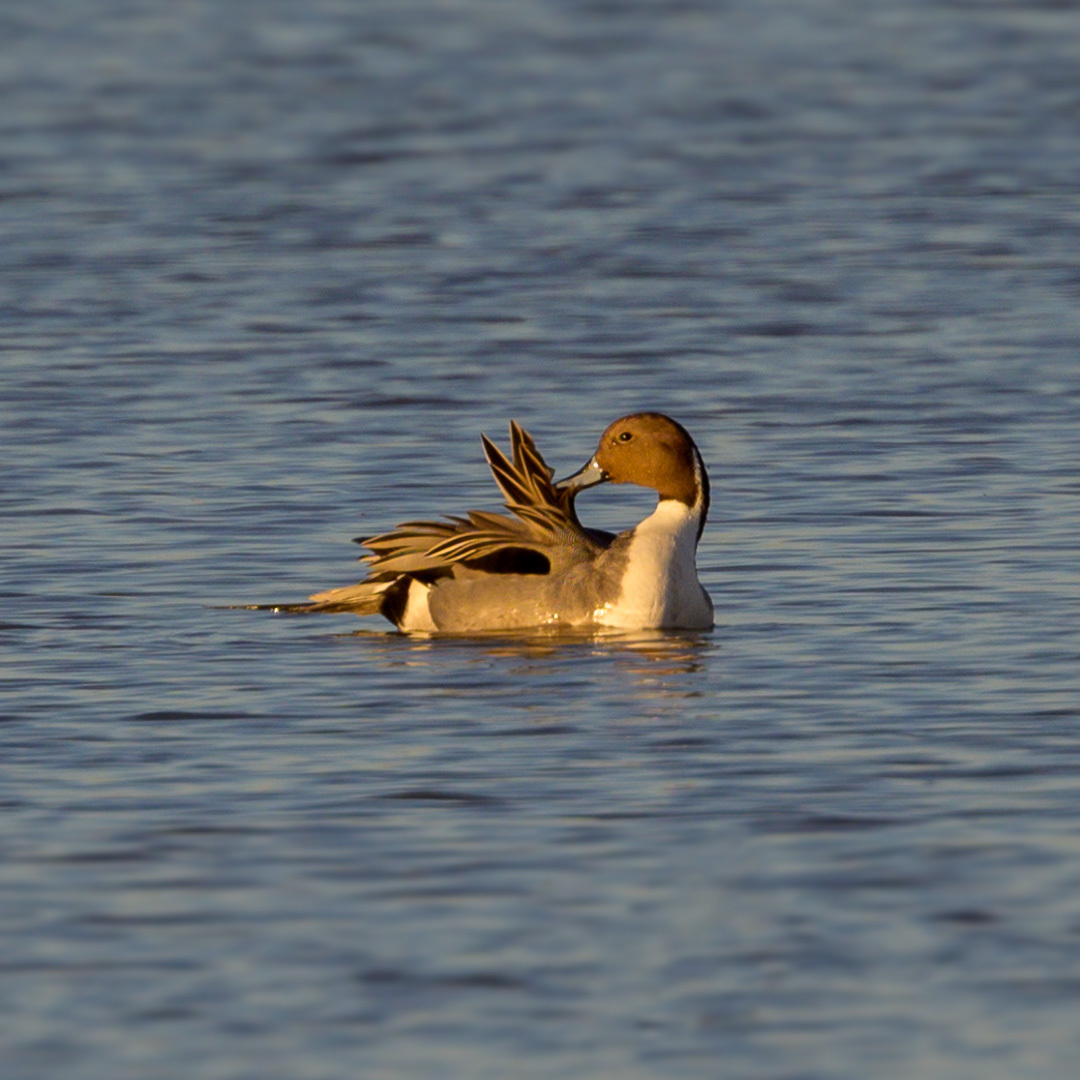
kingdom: Animalia
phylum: Chordata
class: Aves
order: Anseriformes
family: Anatidae
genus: Anas
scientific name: Anas acuta
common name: Northern pintail
